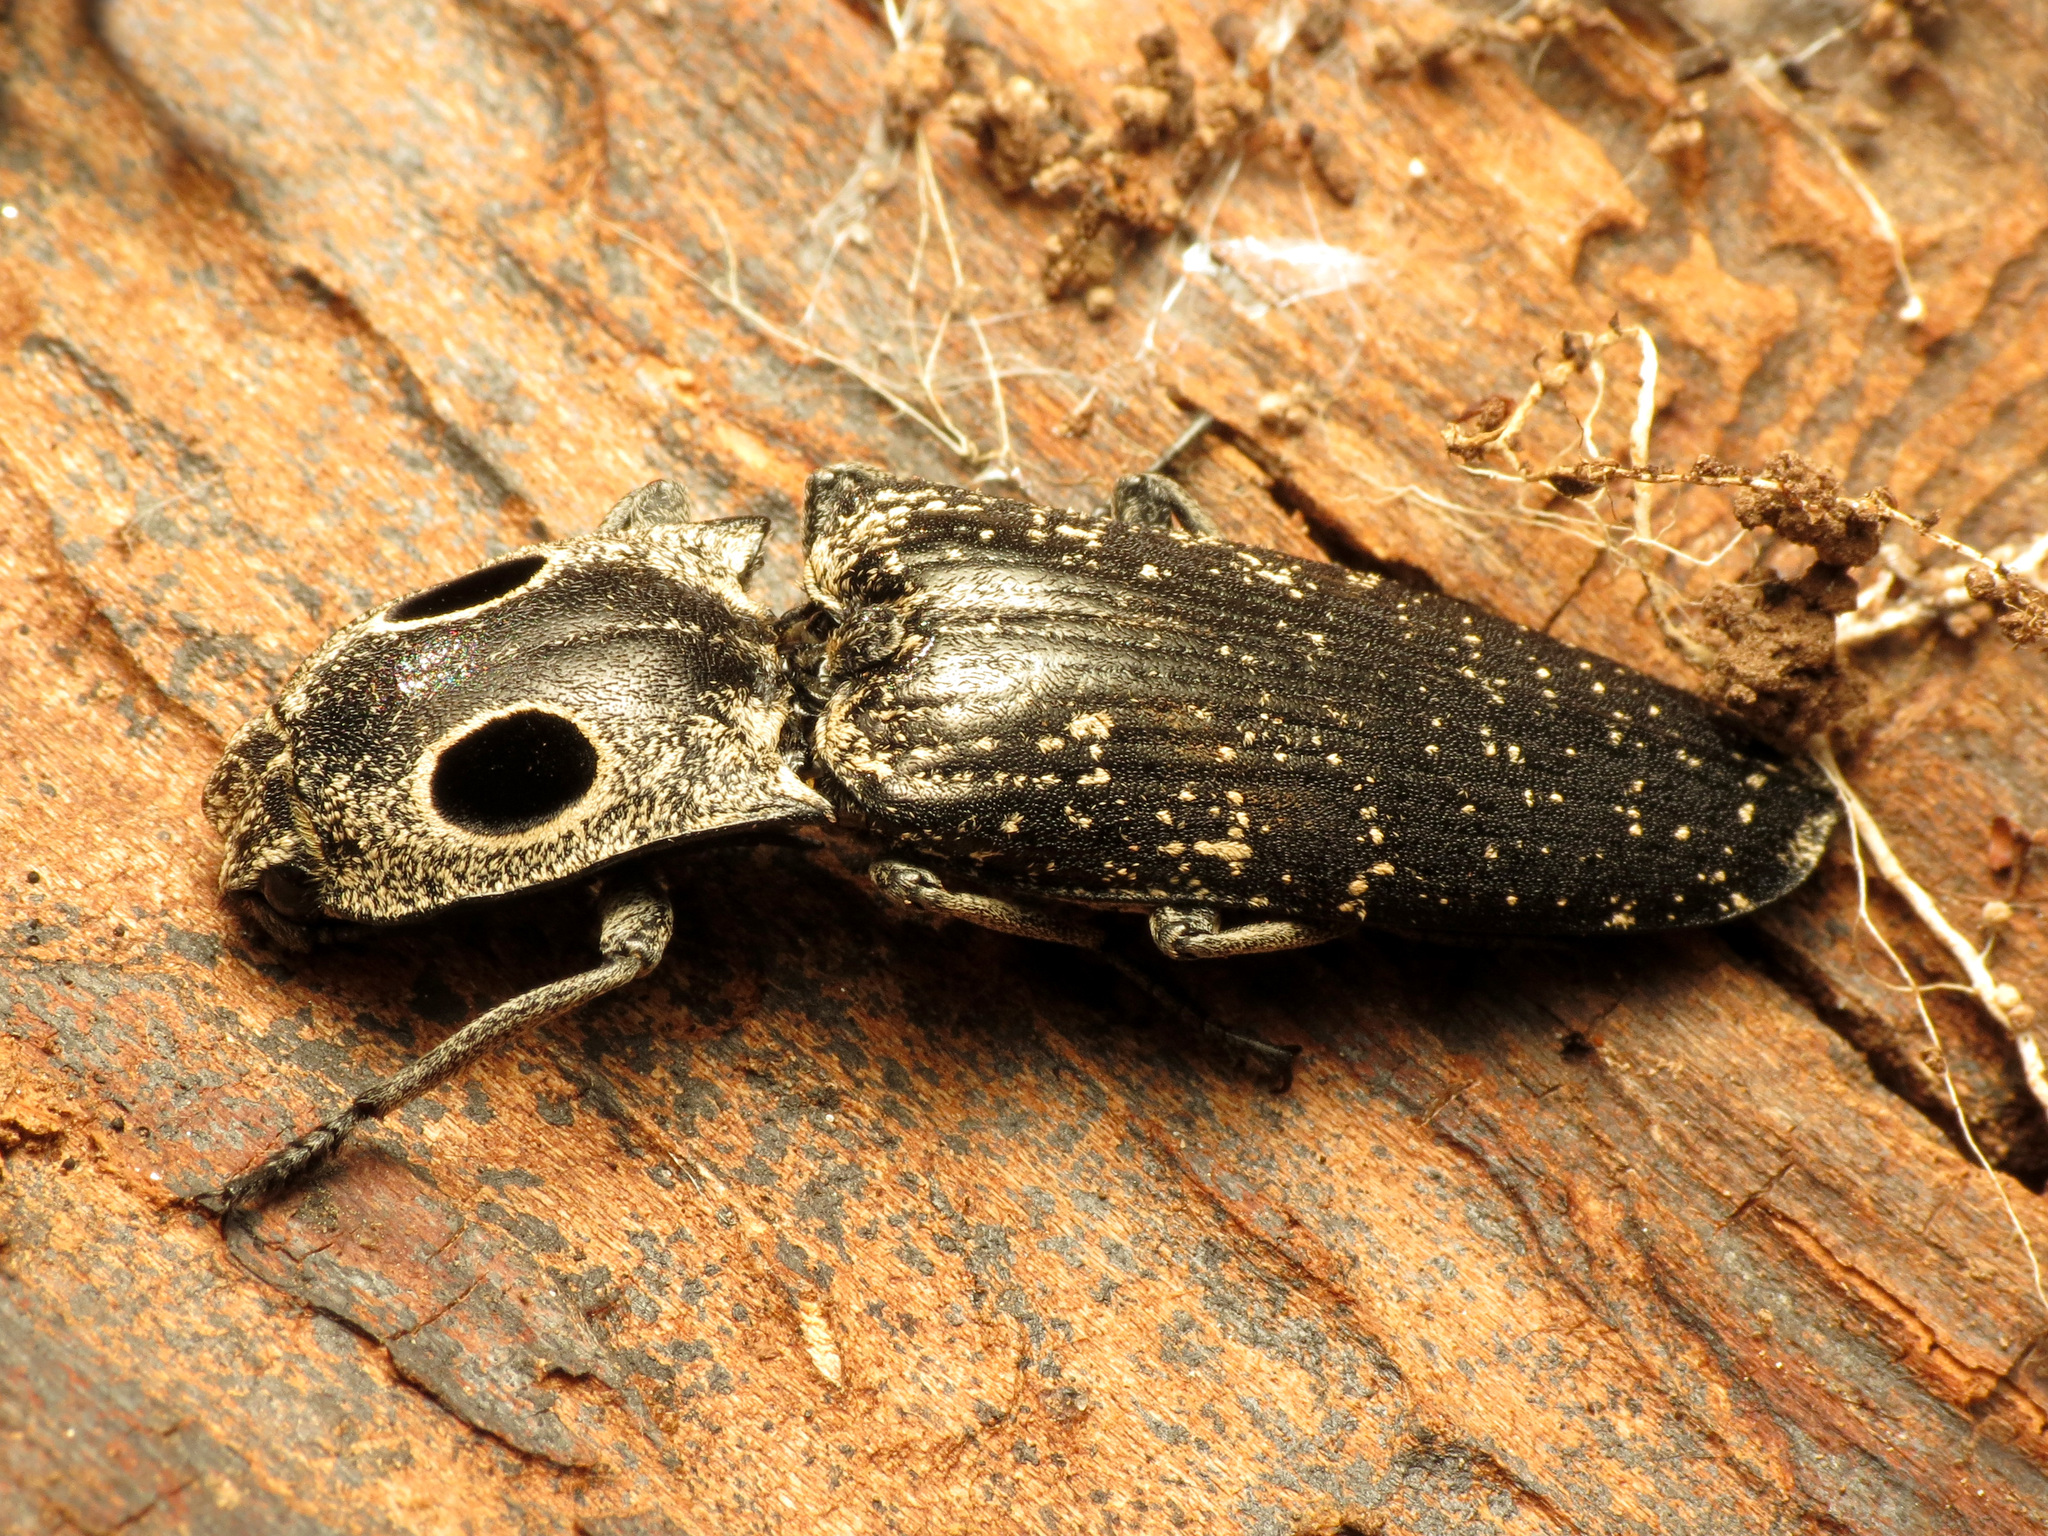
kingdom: Animalia
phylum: Arthropoda
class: Insecta
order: Coleoptera
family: Elateridae
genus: Alaus
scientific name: Alaus oculatus
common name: Eastern eyed click beetle
